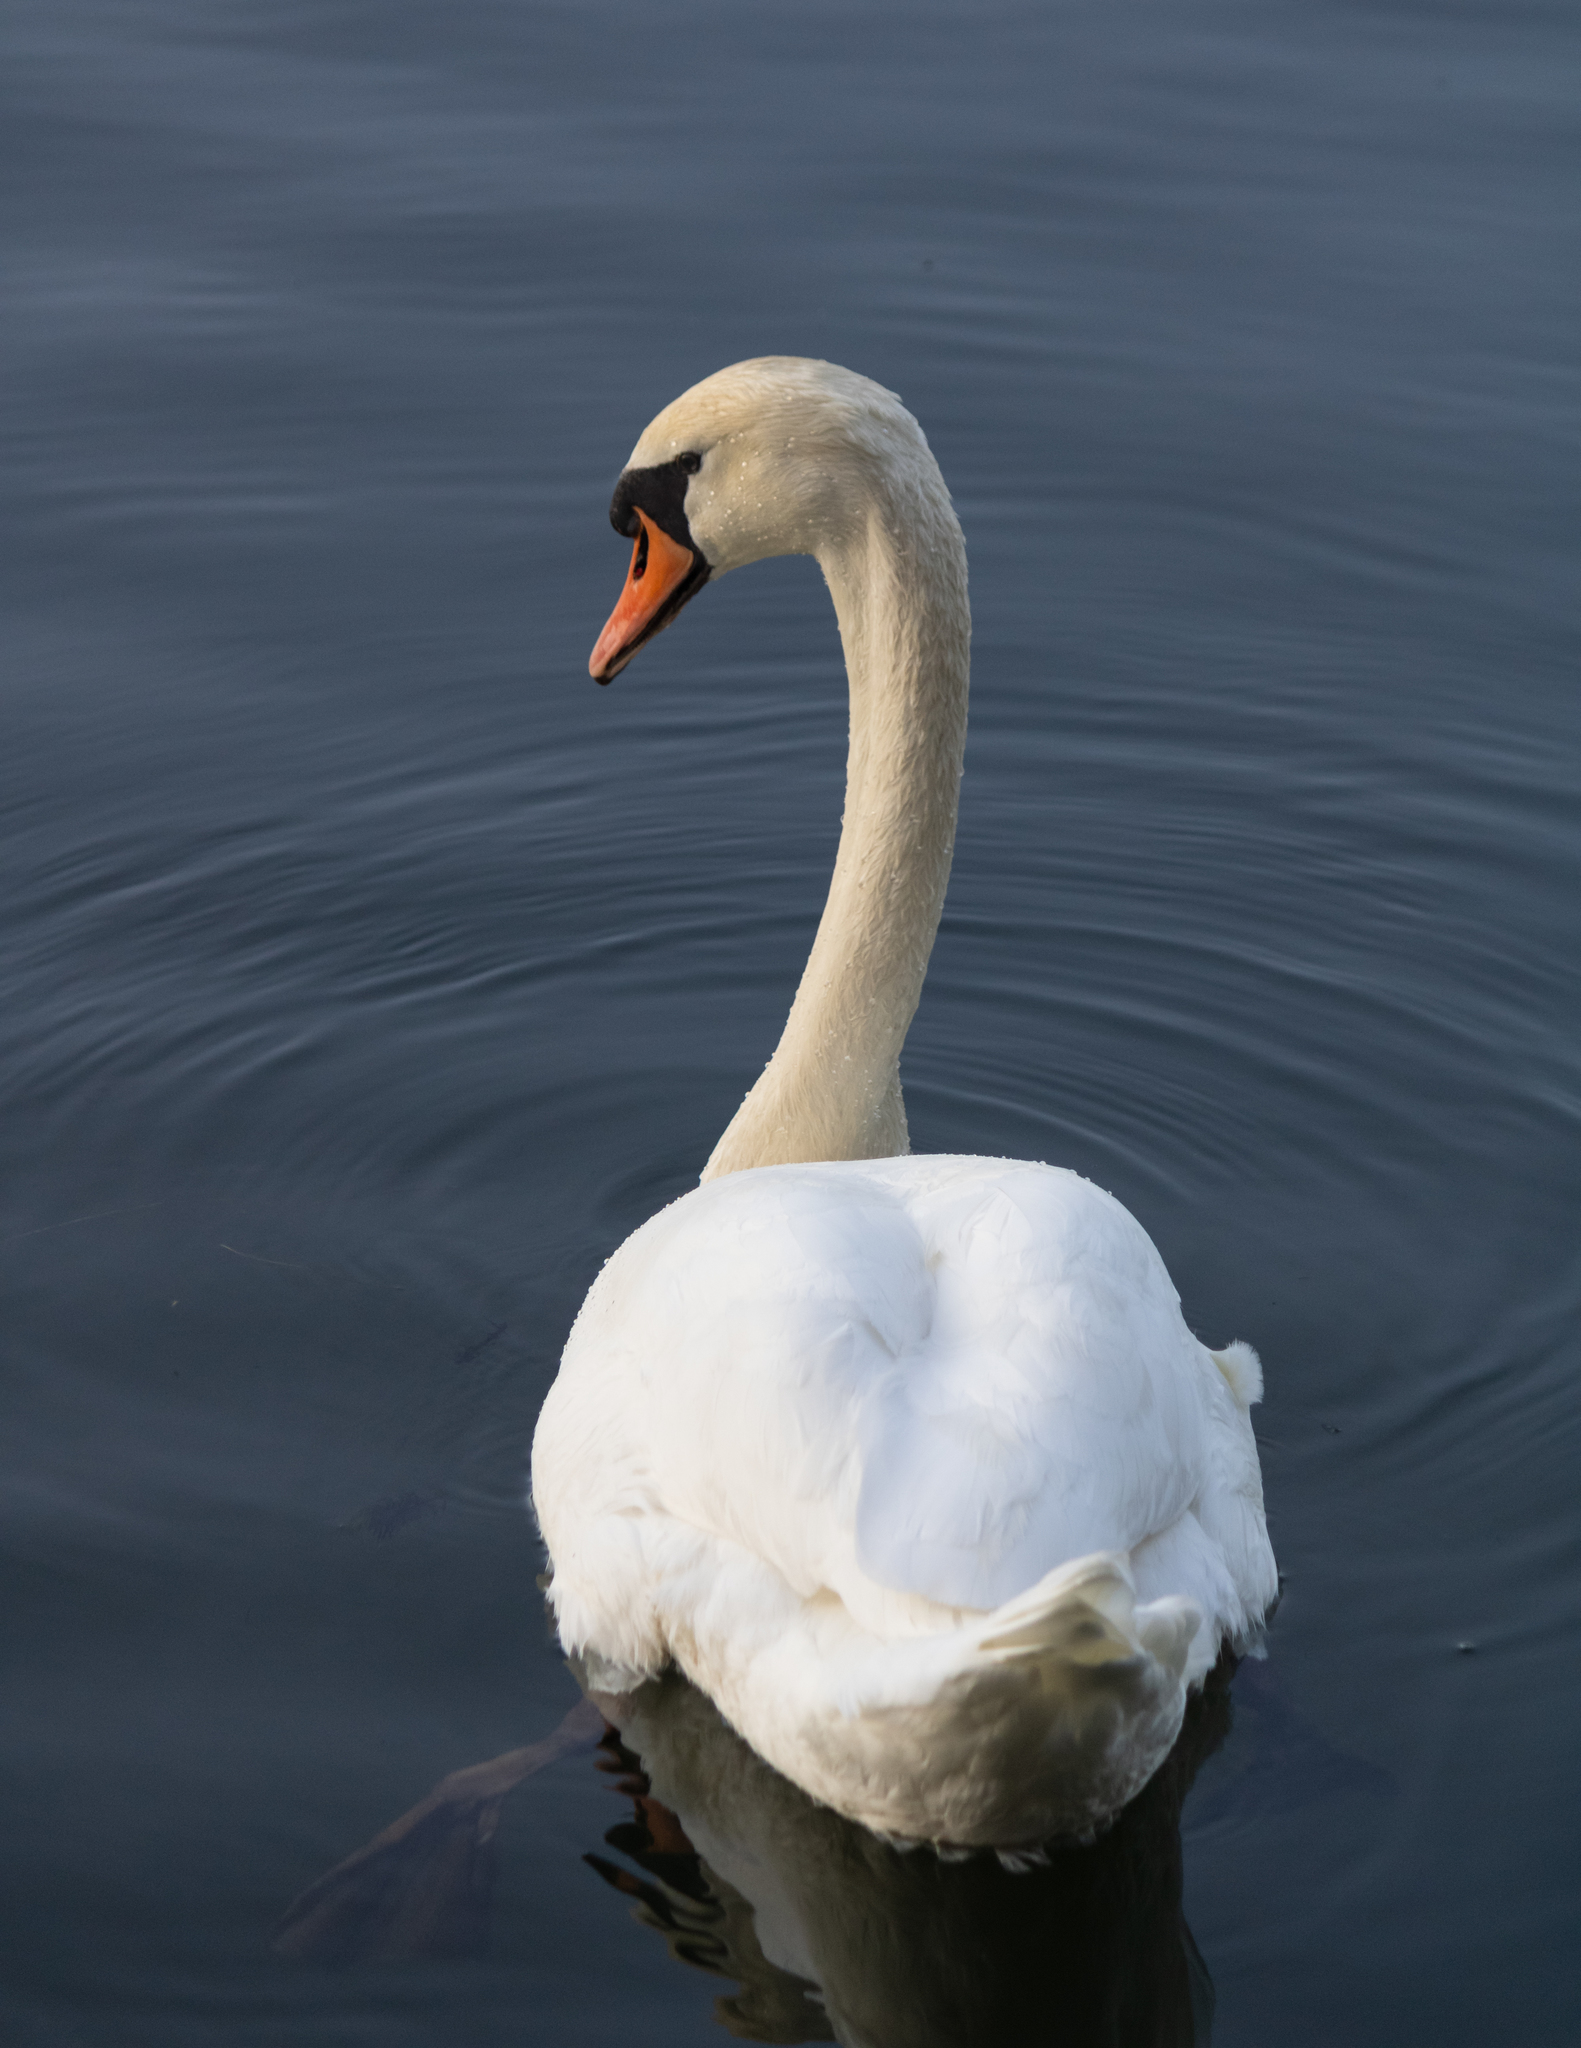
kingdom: Animalia
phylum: Chordata
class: Aves
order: Anseriformes
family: Anatidae
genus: Cygnus
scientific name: Cygnus olor
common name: Mute swan
